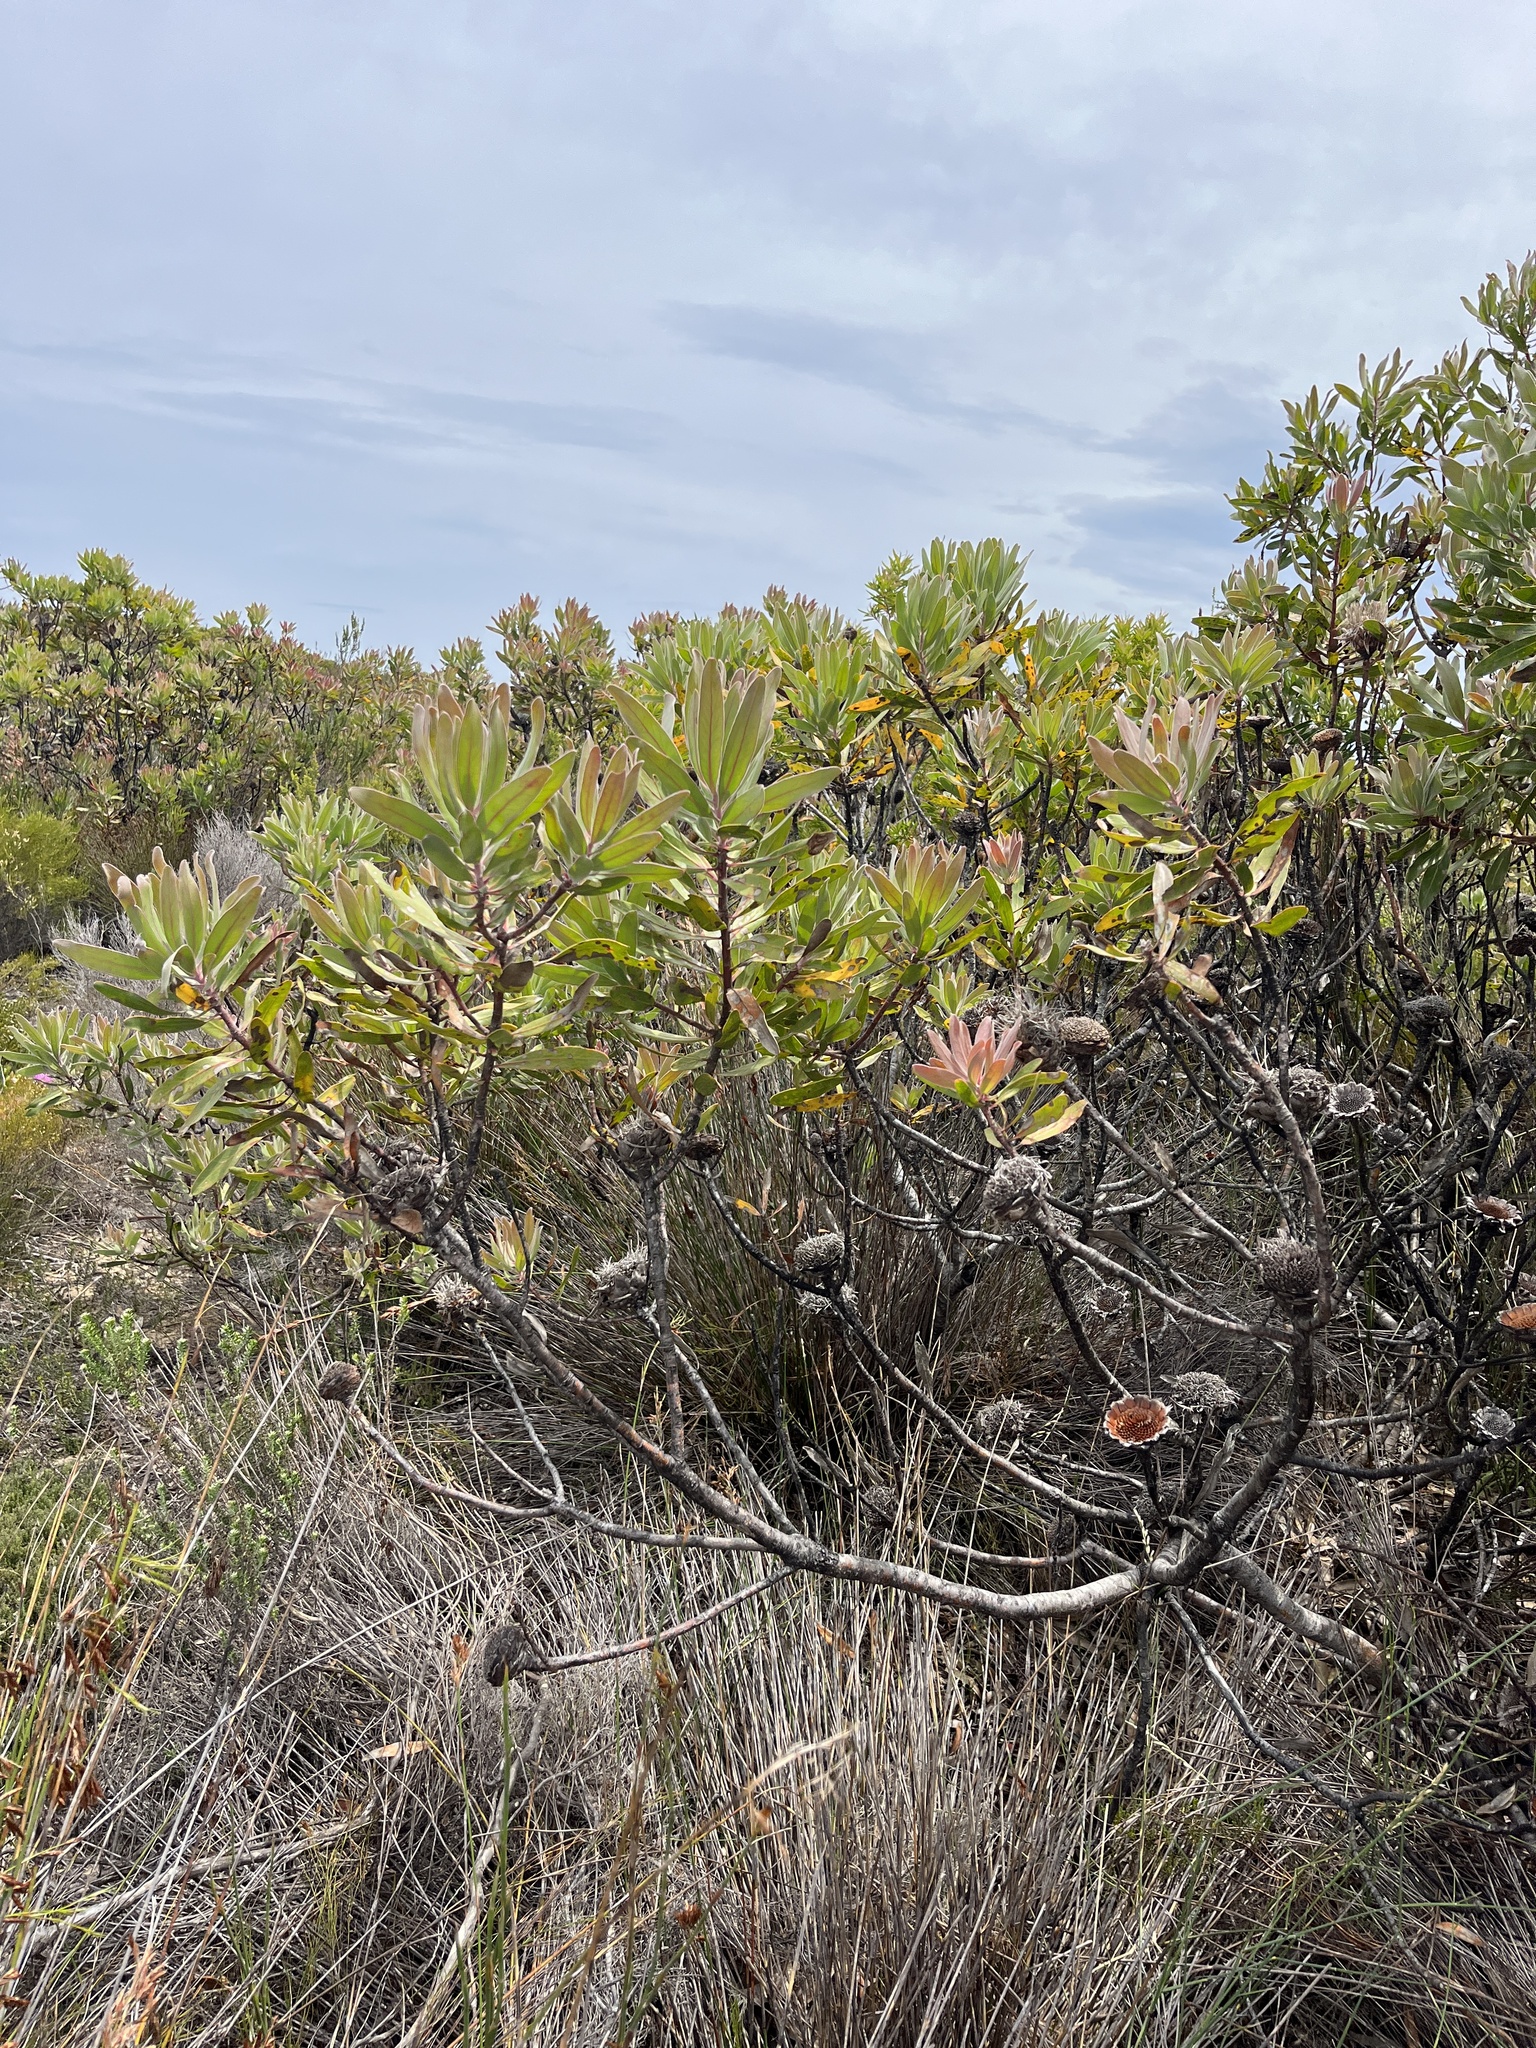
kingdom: Plantae
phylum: Tracheophyta
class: Magnoliopsida
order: Proteales
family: Proteaceae
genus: Protea
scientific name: Protea susannae
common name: Foetid-leaf sugarbush
